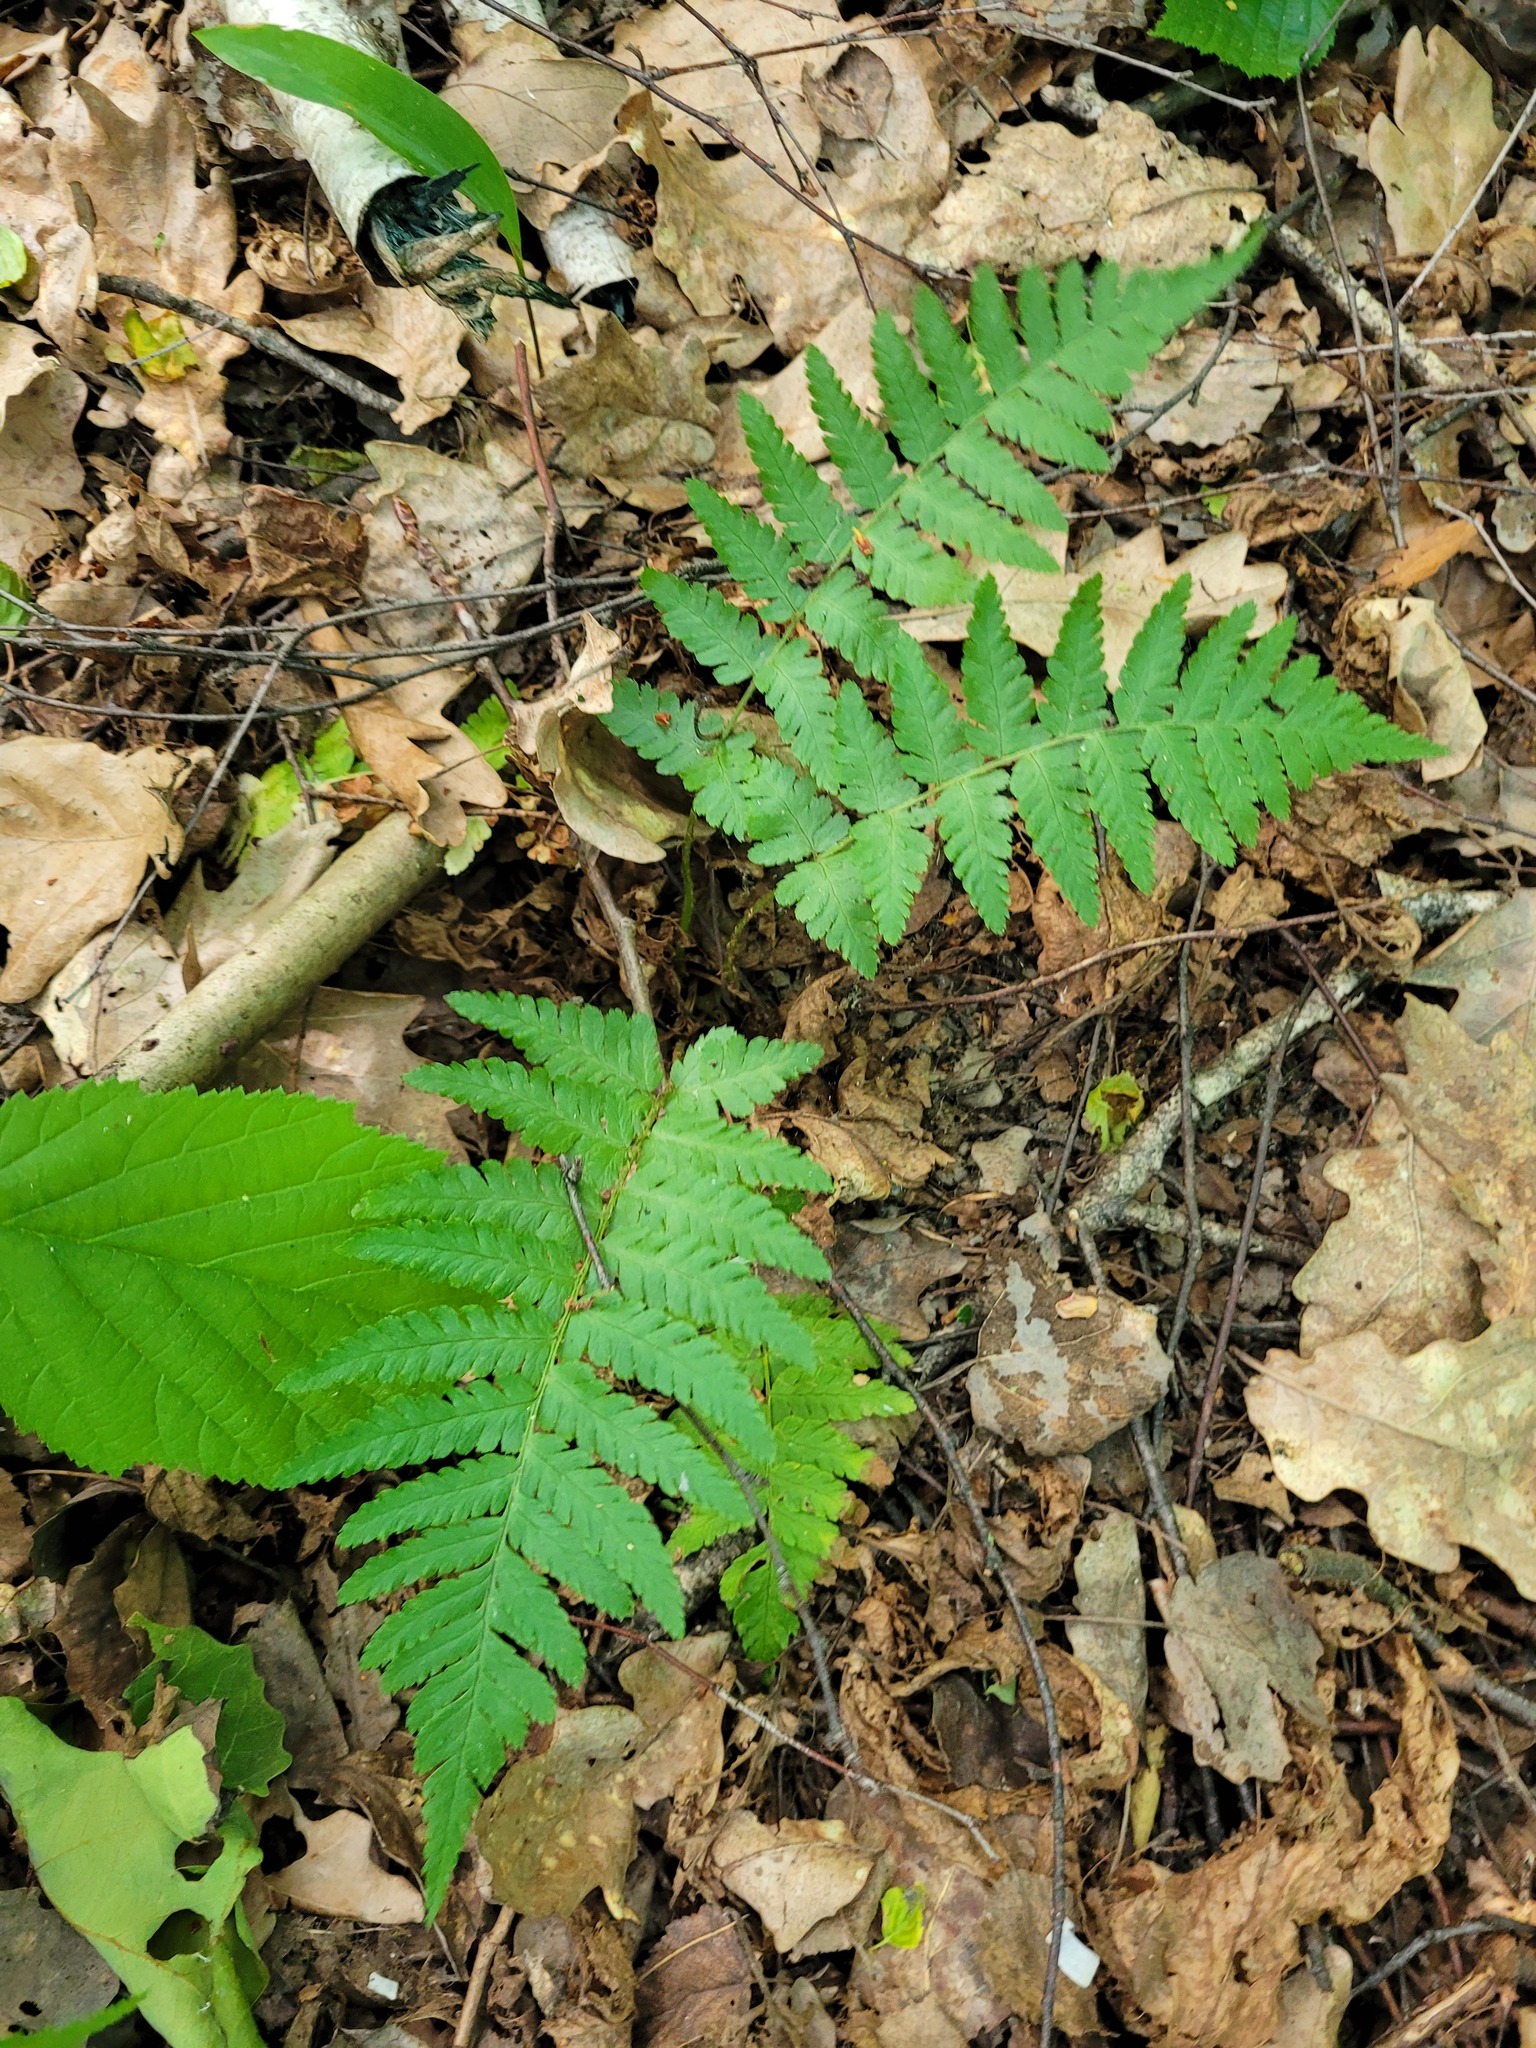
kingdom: Plantae
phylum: Tracheophyta
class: Polypodiopsida
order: Polypodiales
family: Dryopteridaceae
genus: Dryopteris
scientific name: Dryopteris filix-mas
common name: Male fern
